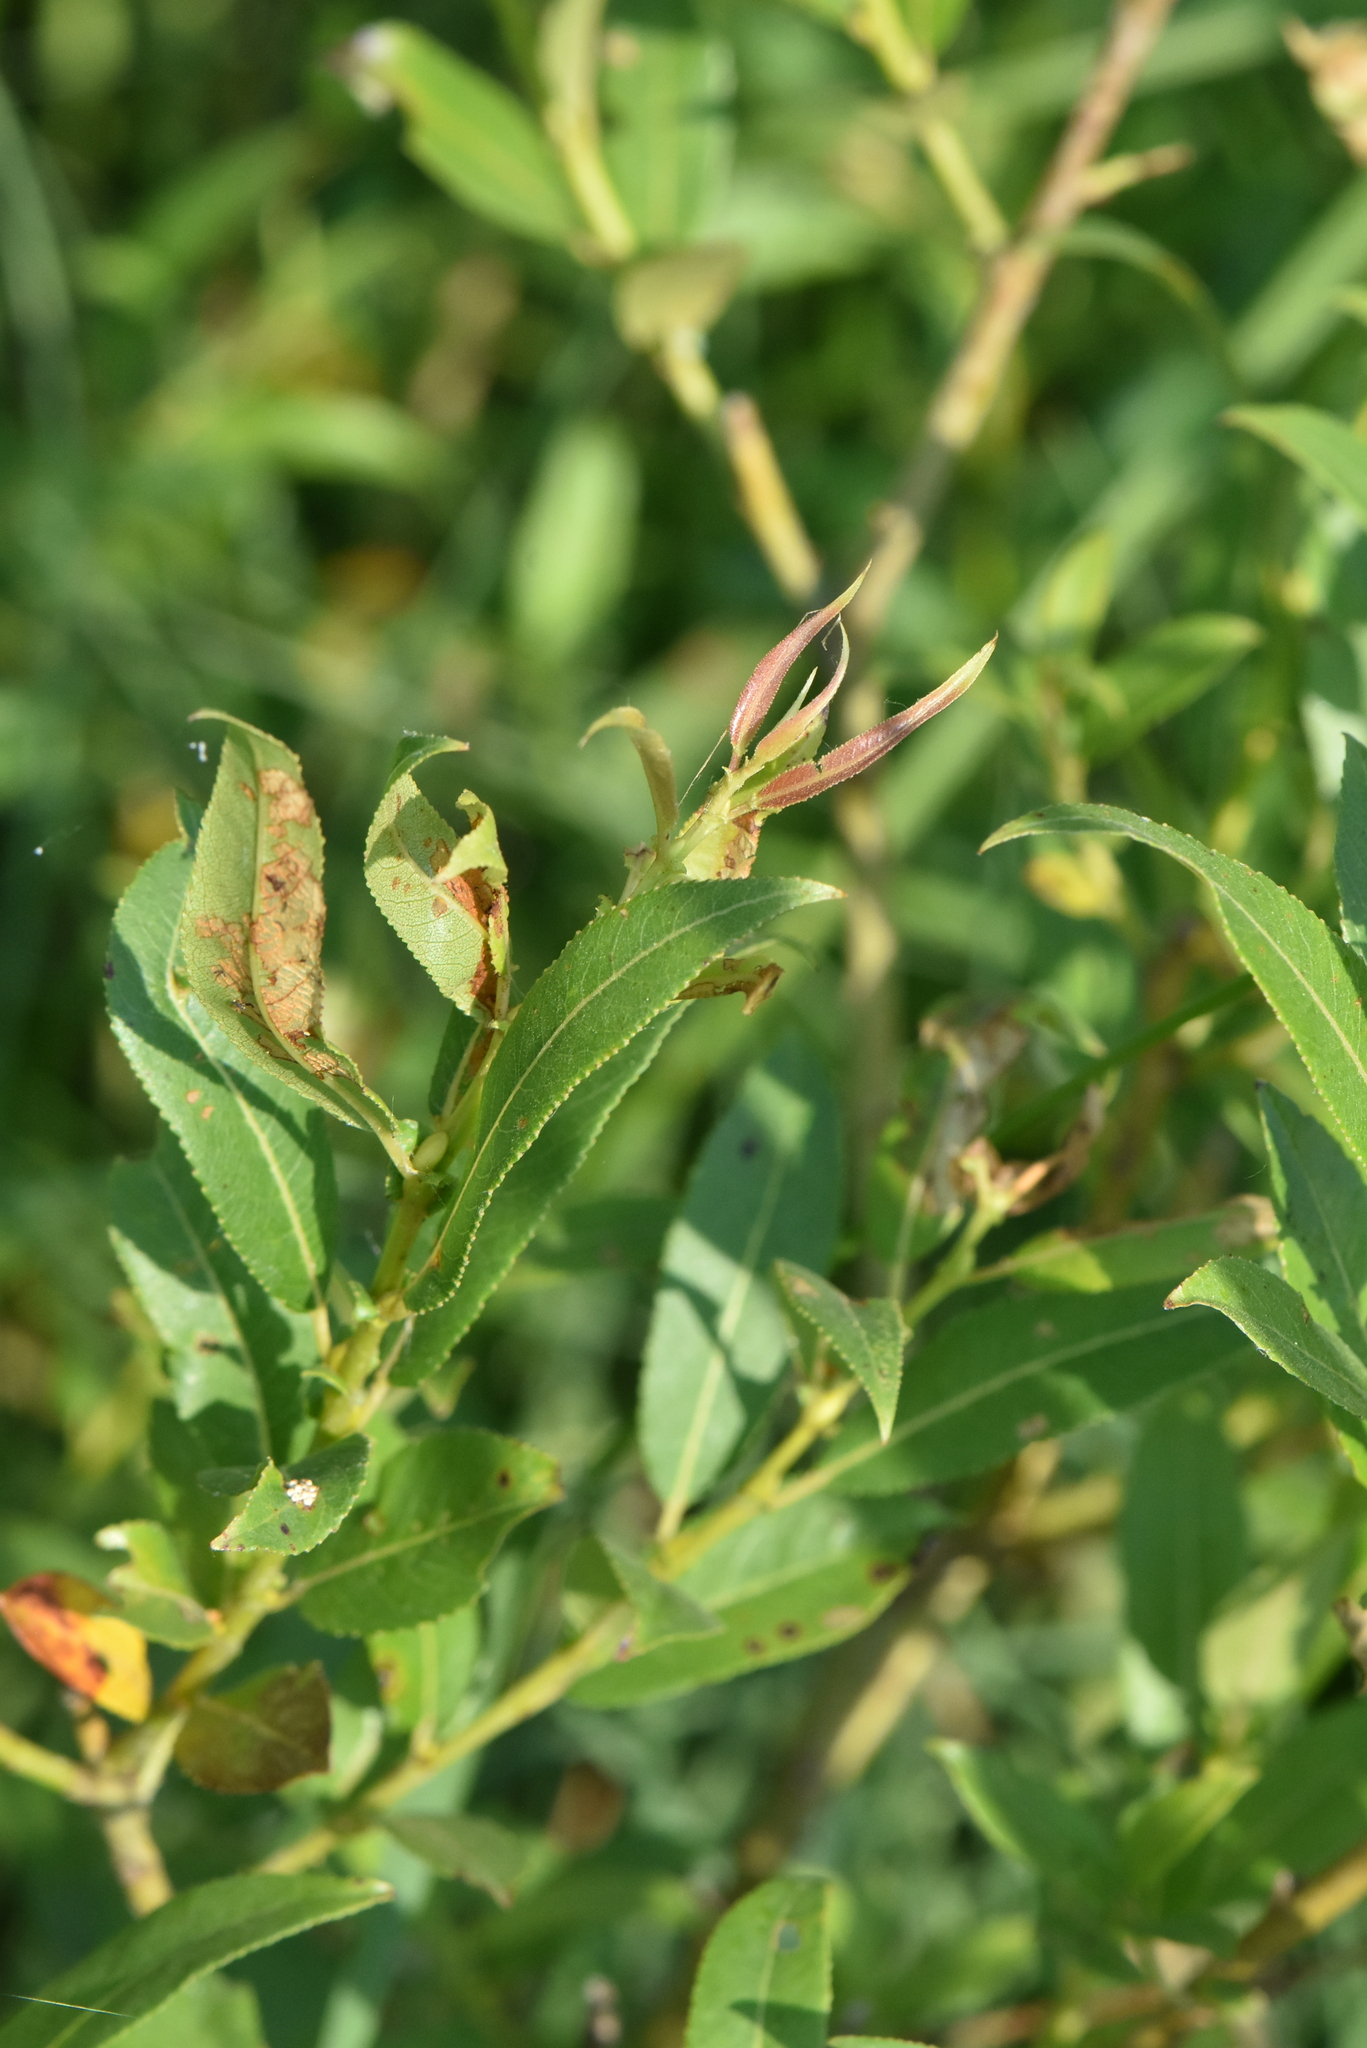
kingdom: Plantae
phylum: Tracheophyta
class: Magnoliopsida
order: Malpighiales
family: Salicaceae
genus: Salix
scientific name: Salix triandra
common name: Almond willow
